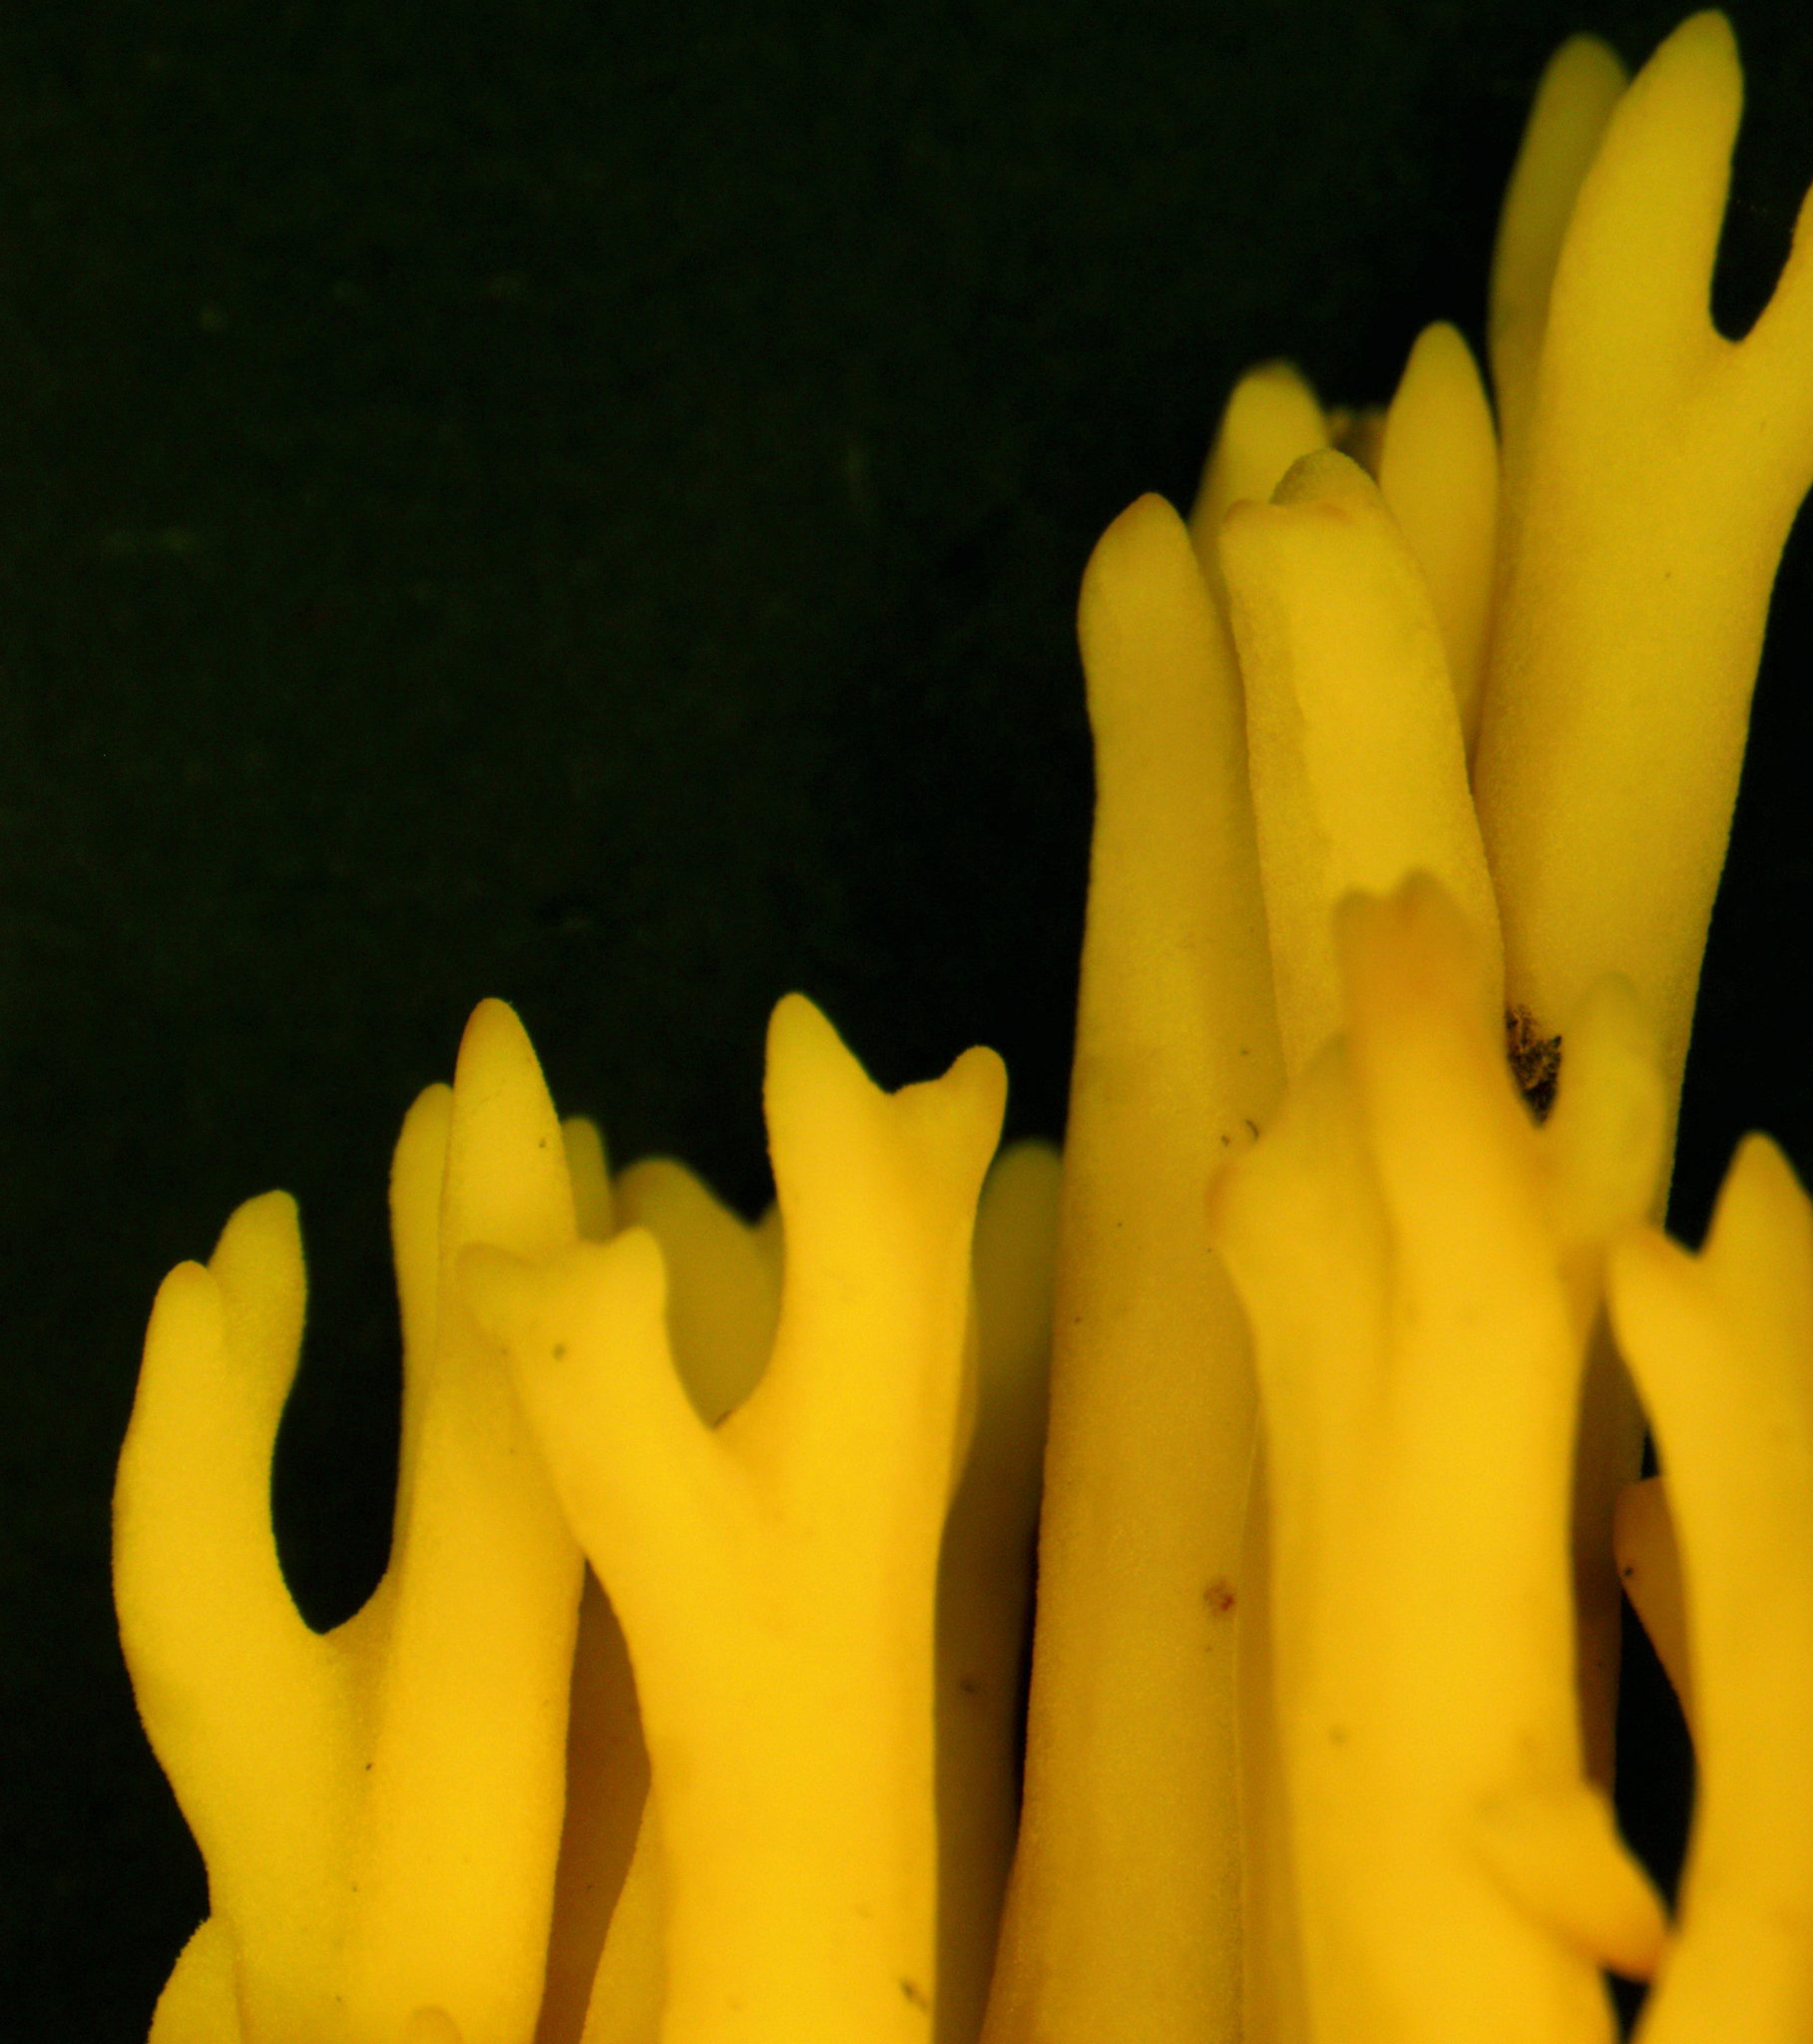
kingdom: Fungi
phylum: Basidiomycota
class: Agaricomycetes
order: Gomphales
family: Gomphaceae
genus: Ramaria
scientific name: Ramaria
